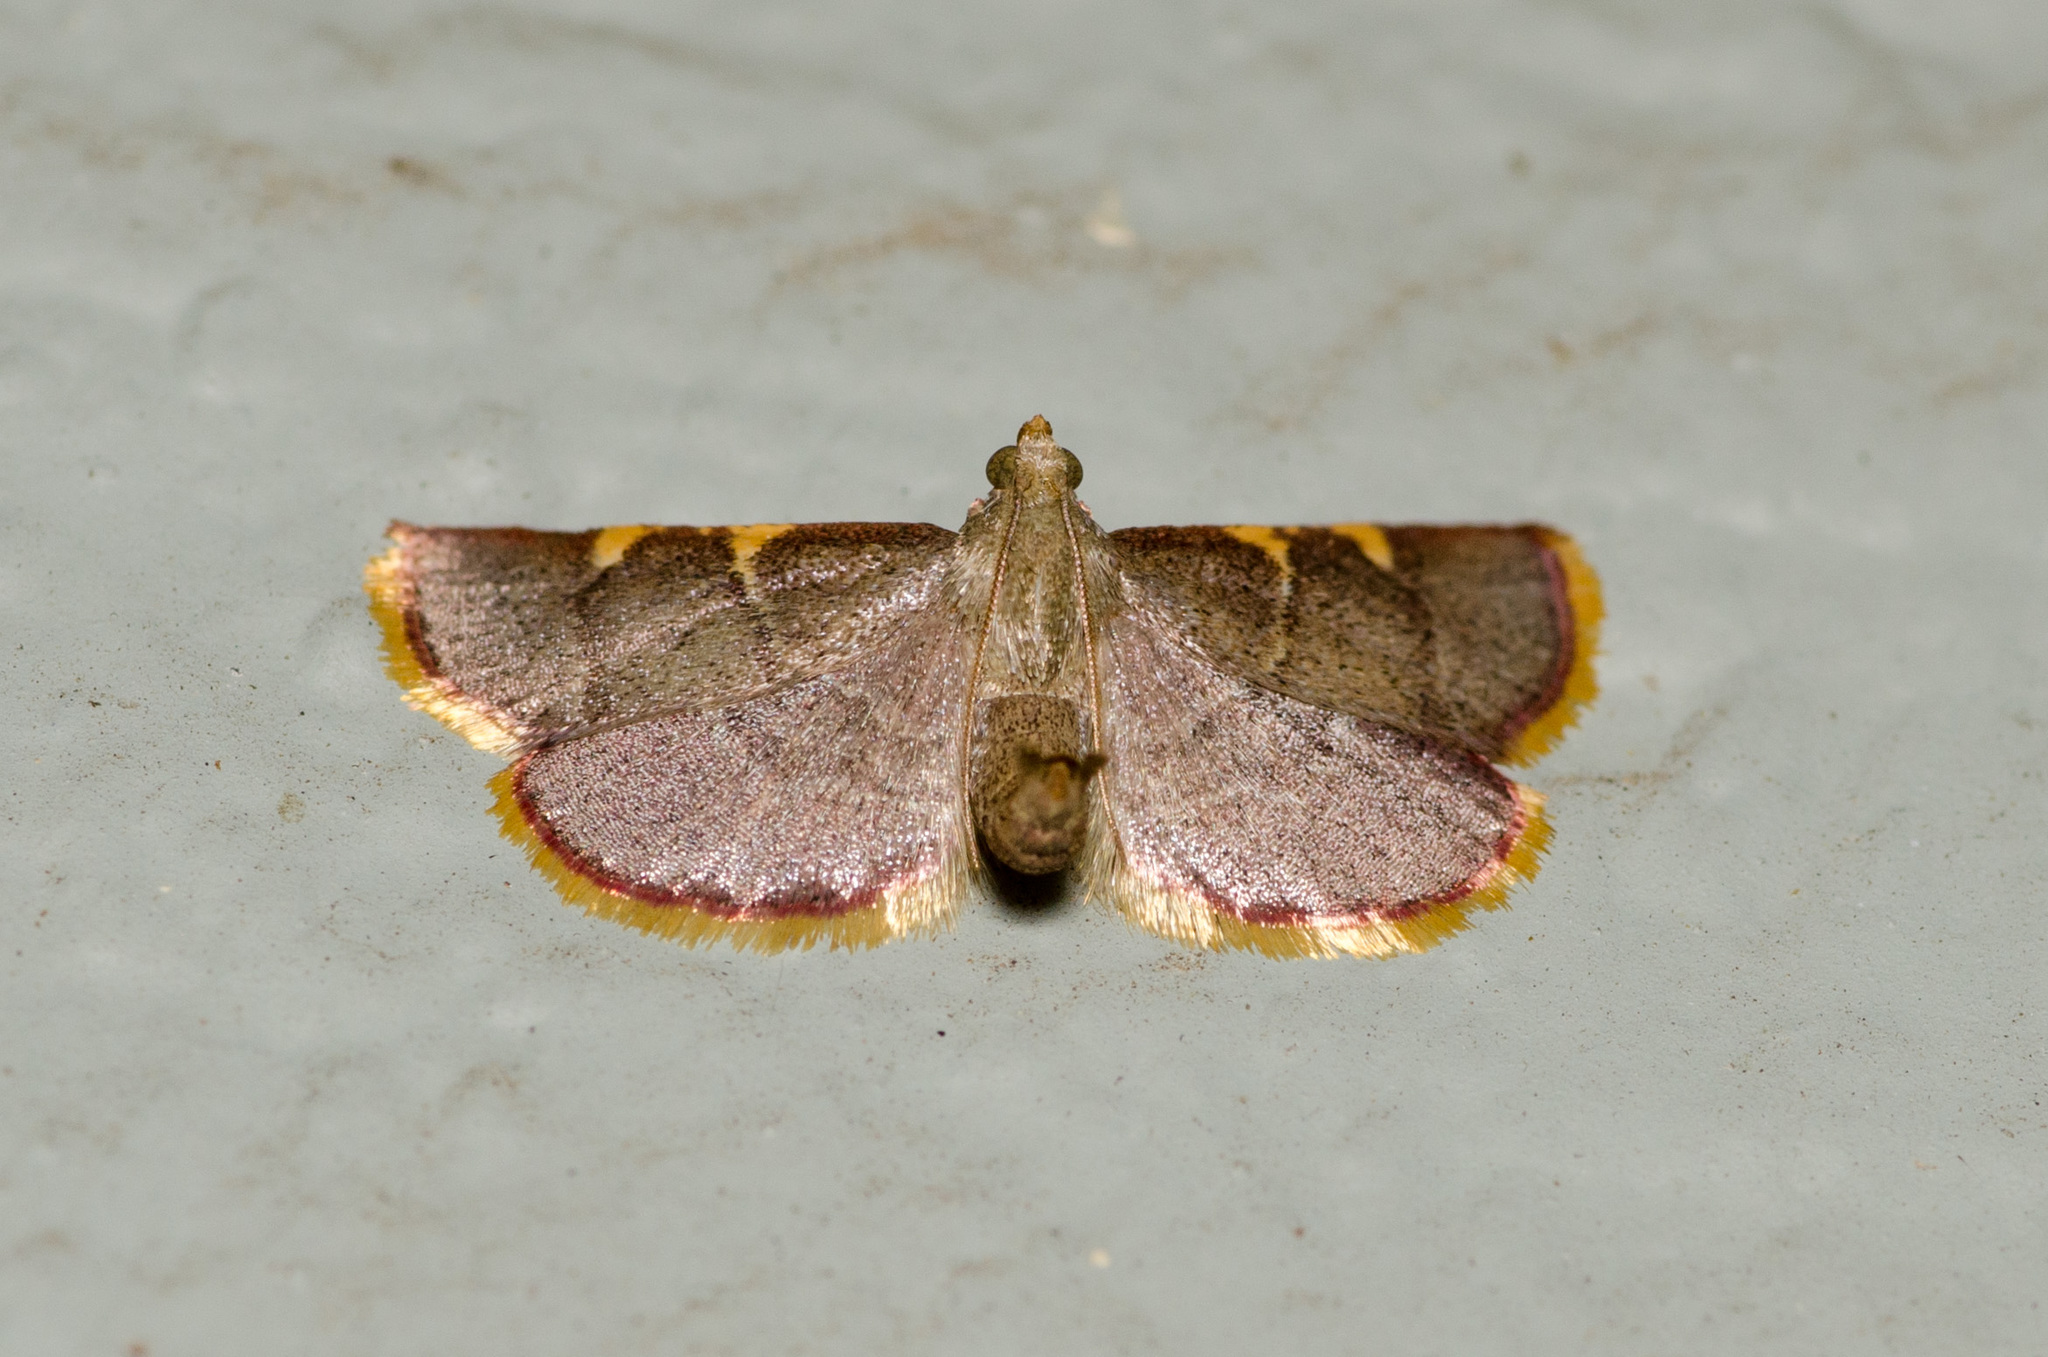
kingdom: Animalia
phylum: Arthropoda
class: Insecta
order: Lepidoptera
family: Pyralidae
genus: Hypsopygia
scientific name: Hypsopygia olinalis
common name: Yellow-fringed dolichomia moth
